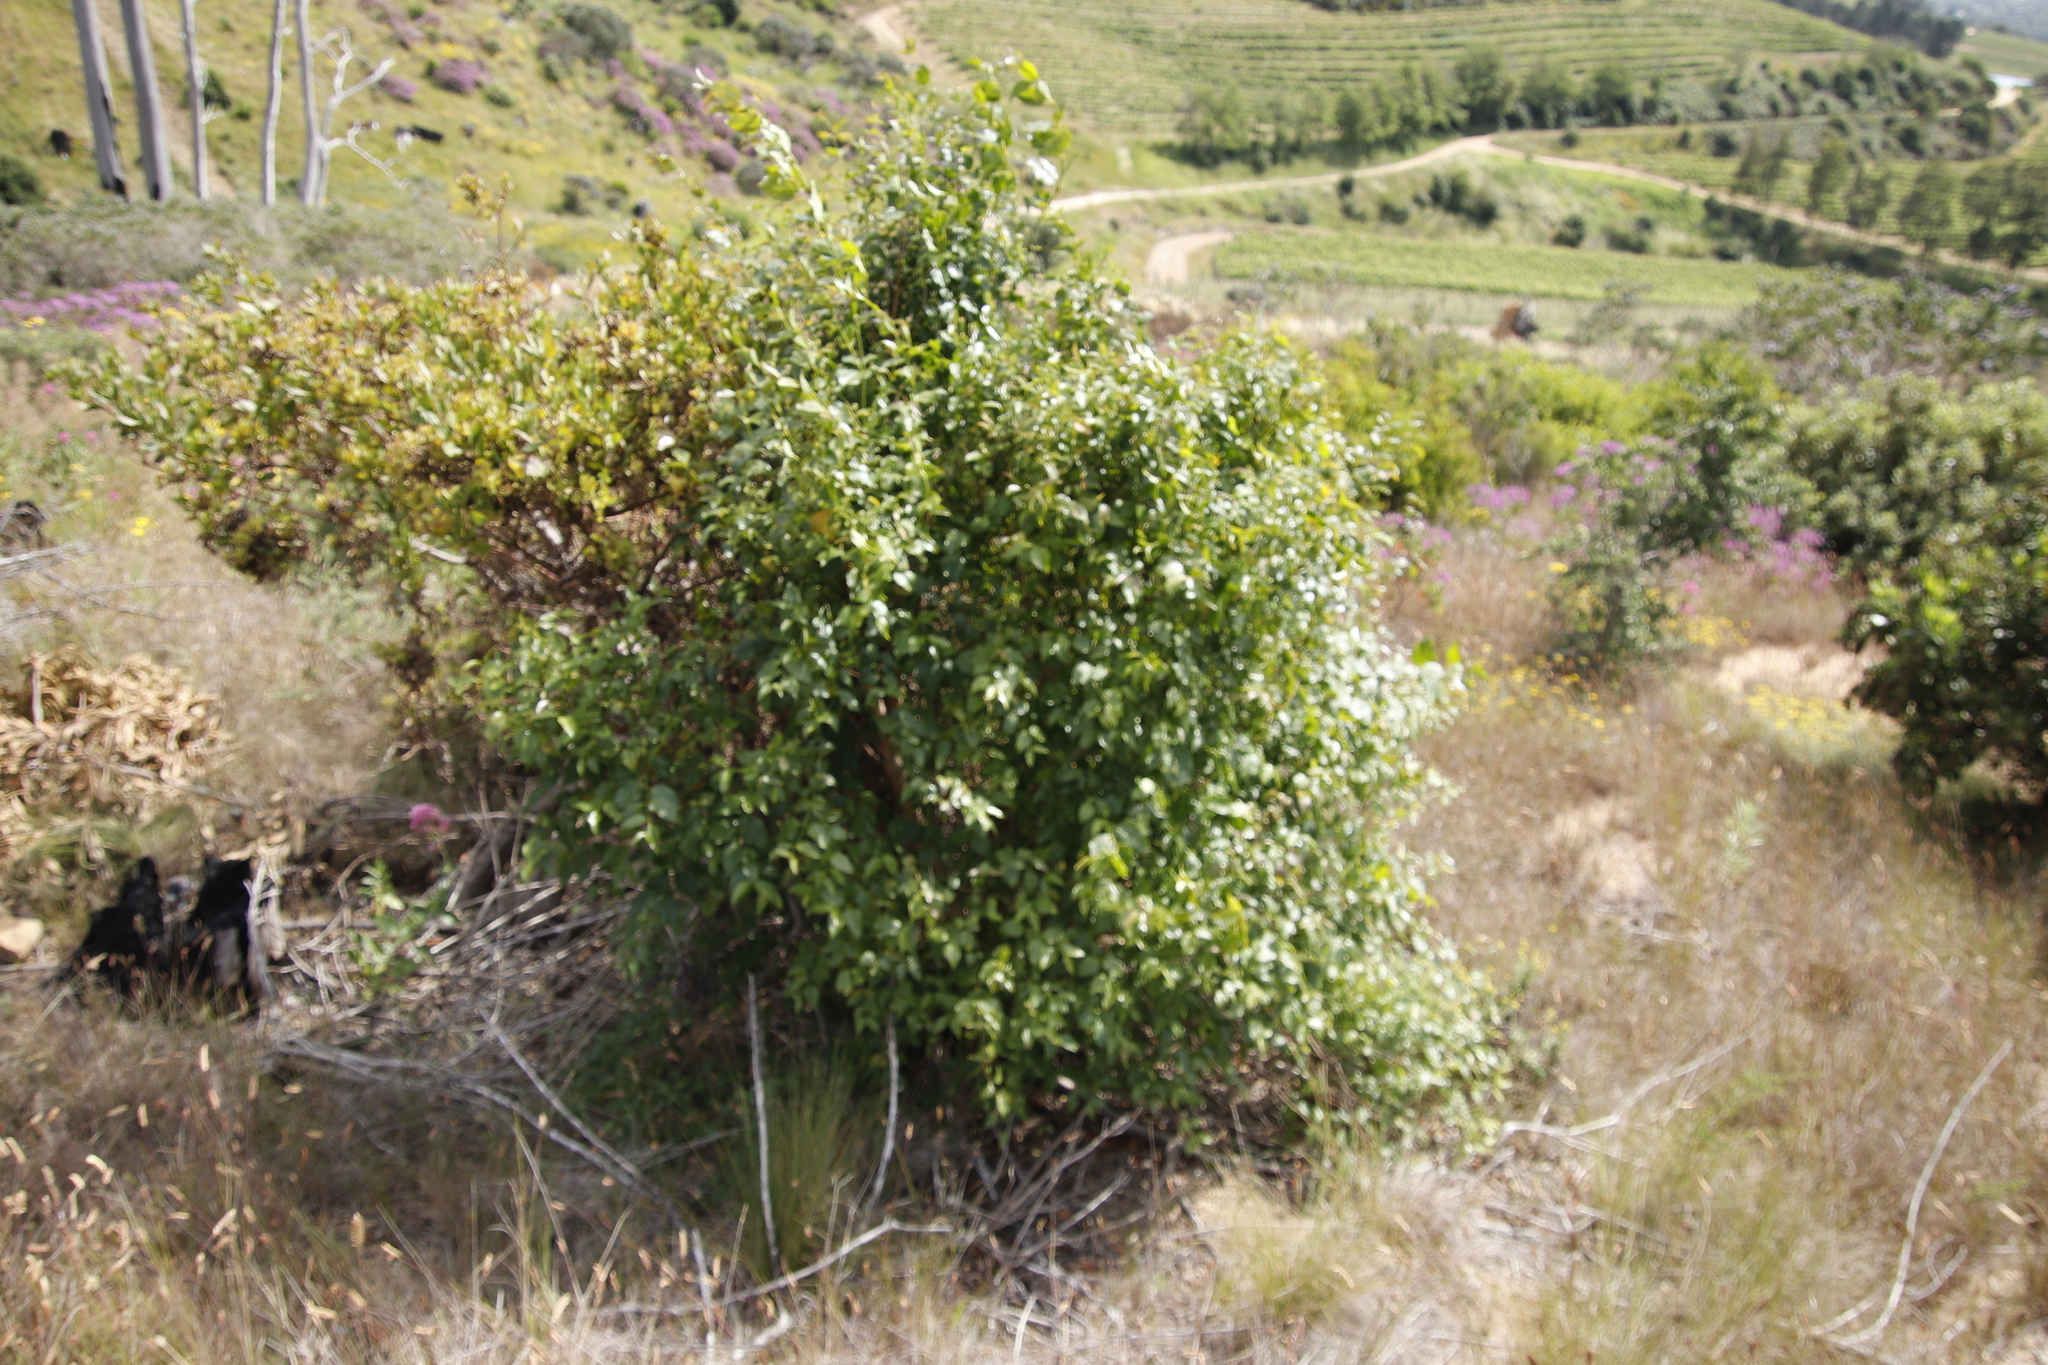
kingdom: Plantae
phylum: Tracheophyta
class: Magnoliopsida
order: Lamiales
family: Stilbaceae
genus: Halleria
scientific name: Halleria lucida
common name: Tree fuschia
